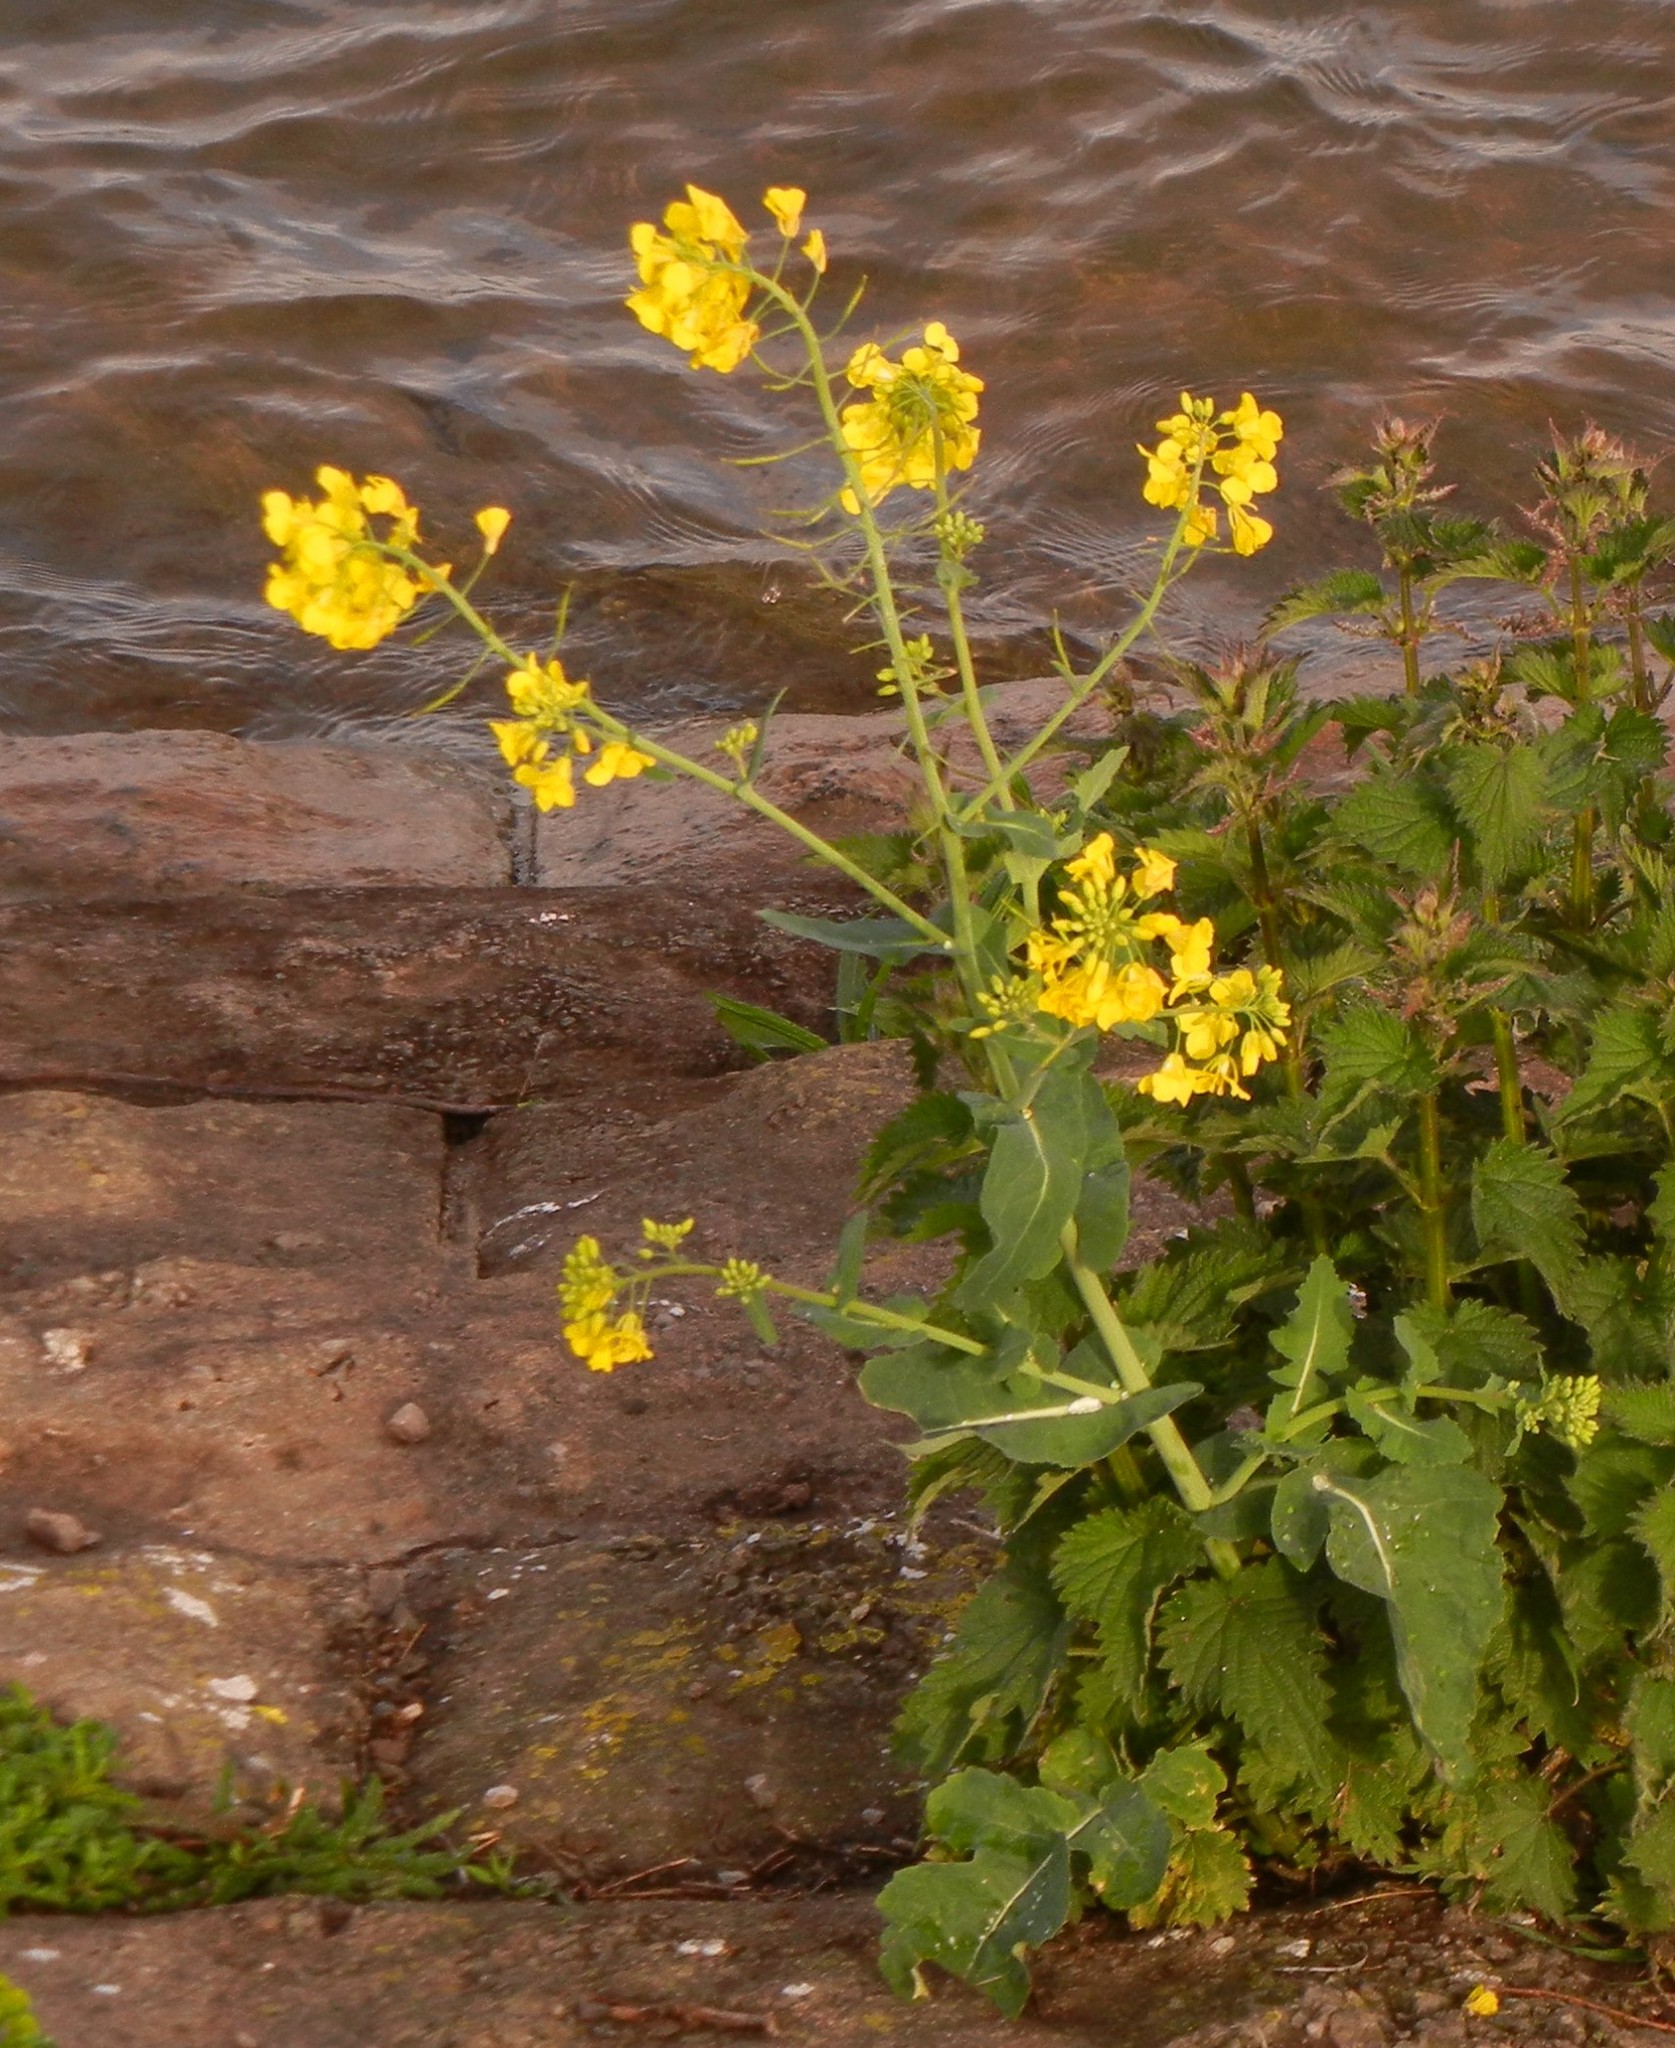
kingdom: Plantae
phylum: Tracheophyta
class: Magnoliopsida
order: Brassicales
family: Brassicaceae
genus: Brassica
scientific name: Brassica napus
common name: Rape
